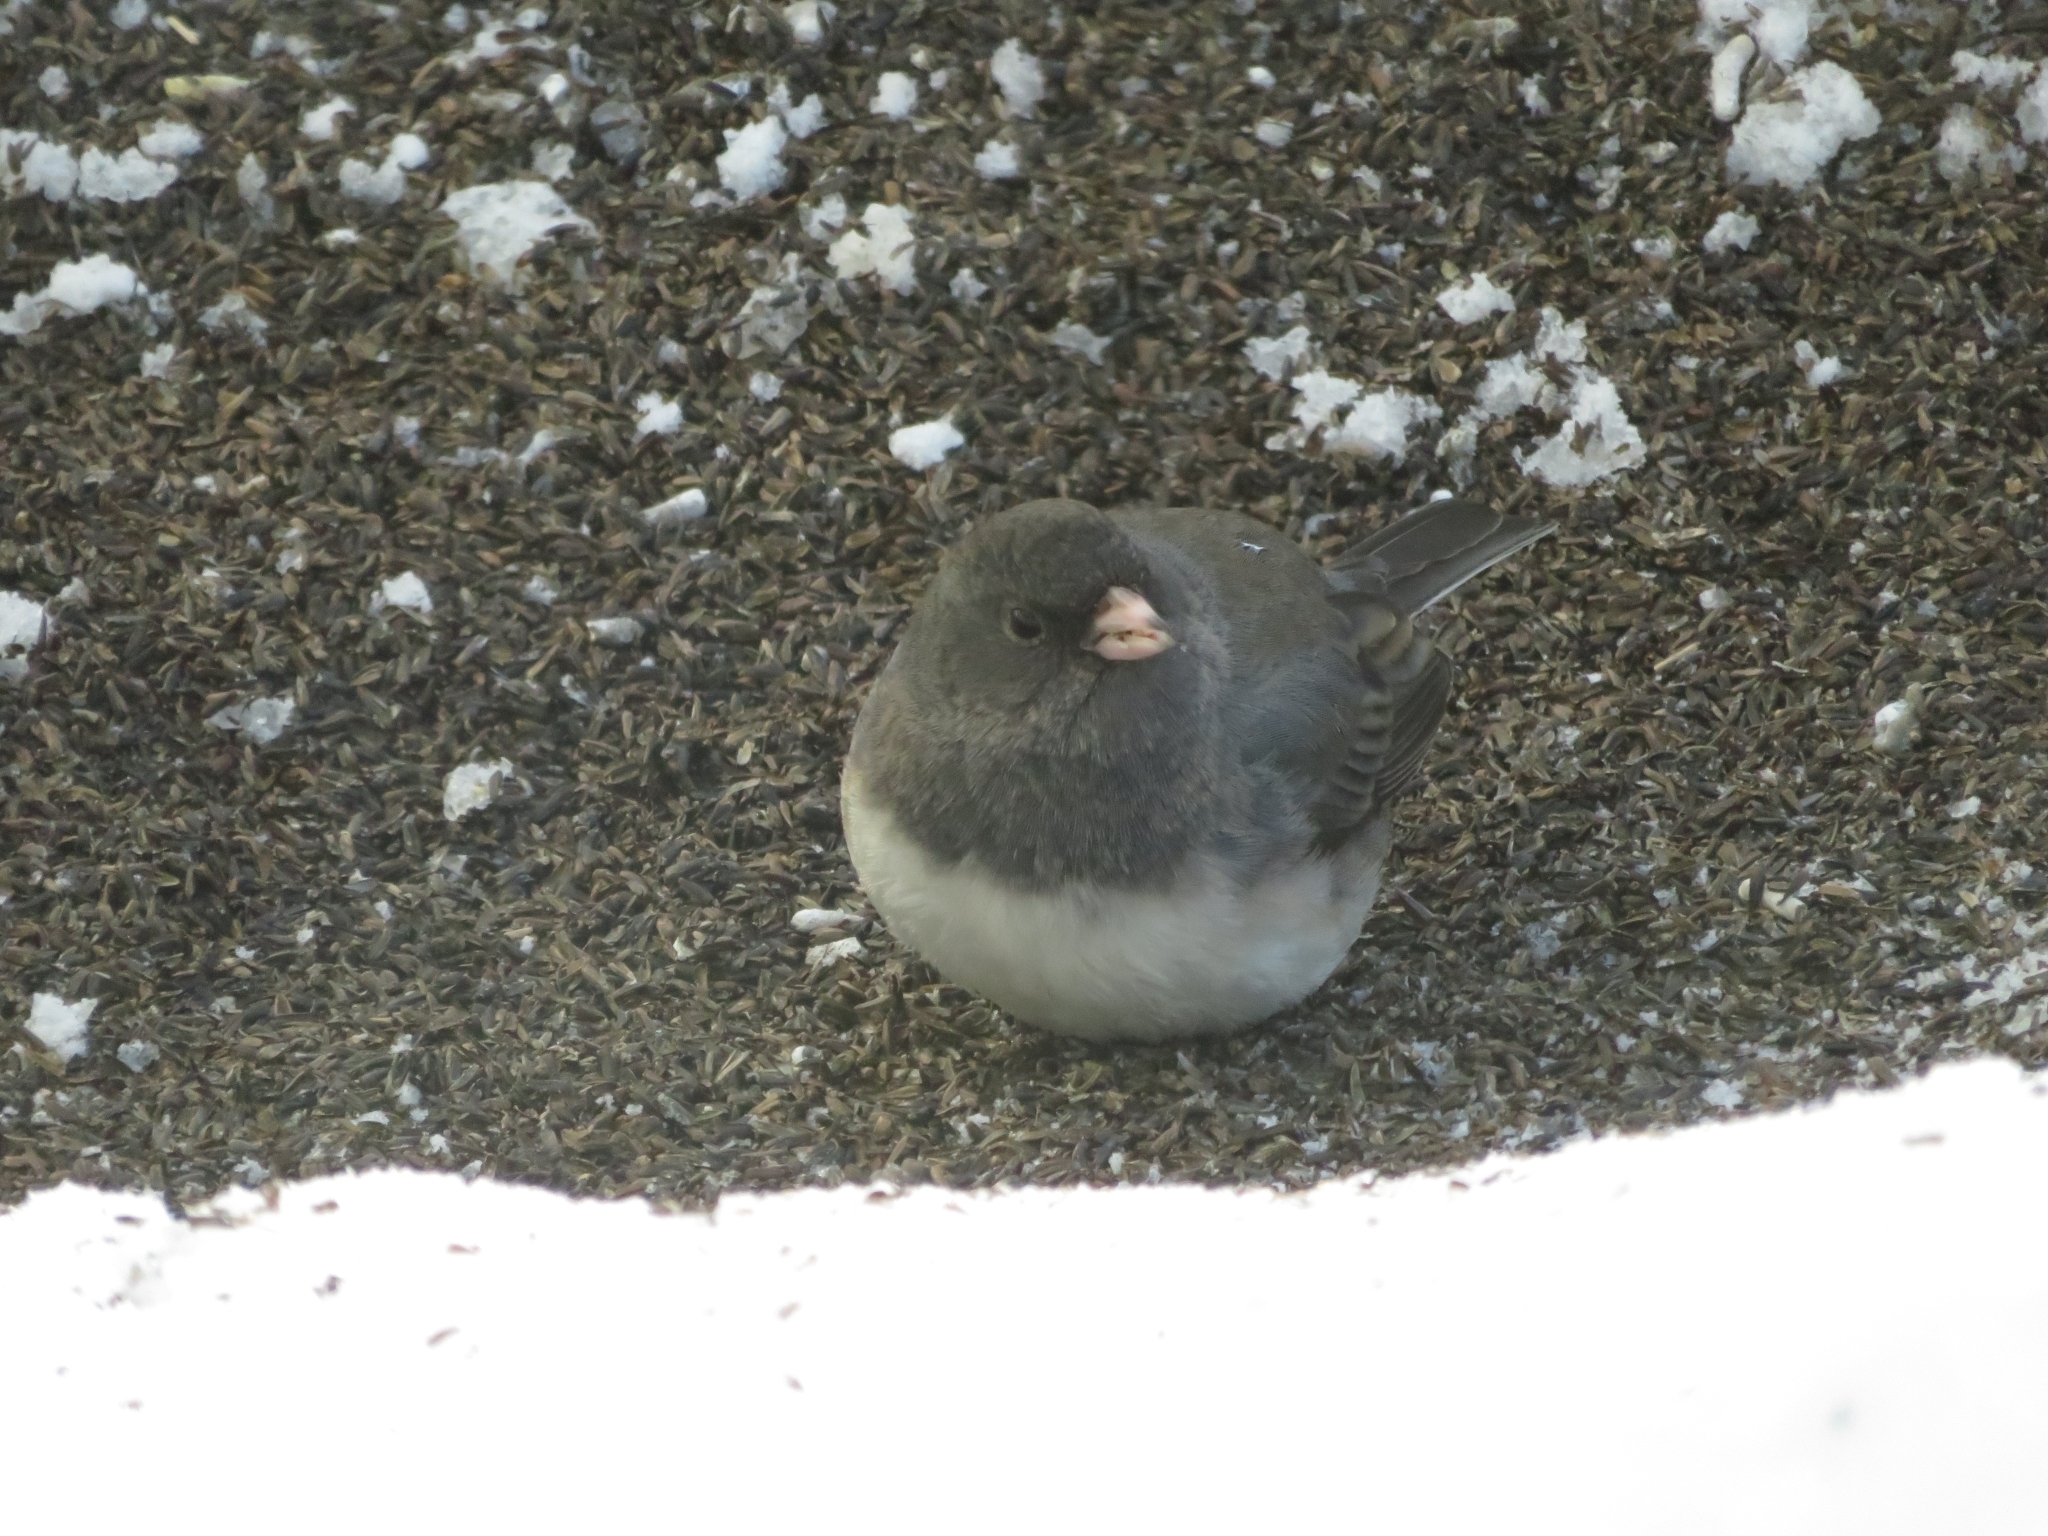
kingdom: Animalia
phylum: Chordata
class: Aves
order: Passeriformes
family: Passerellidae
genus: Junco
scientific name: Junco hyemalis
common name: Dark-eyed junco
